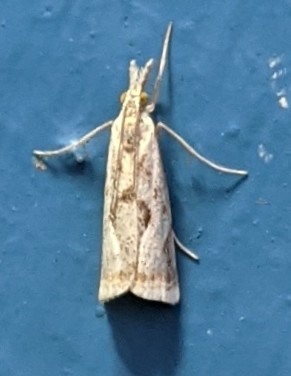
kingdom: Animalia
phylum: Arthropoda
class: Insecta
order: Lepidoptera
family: Crambidae
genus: Microcrambus
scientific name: Microcrambus elegans
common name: Elegant grass-veneer
